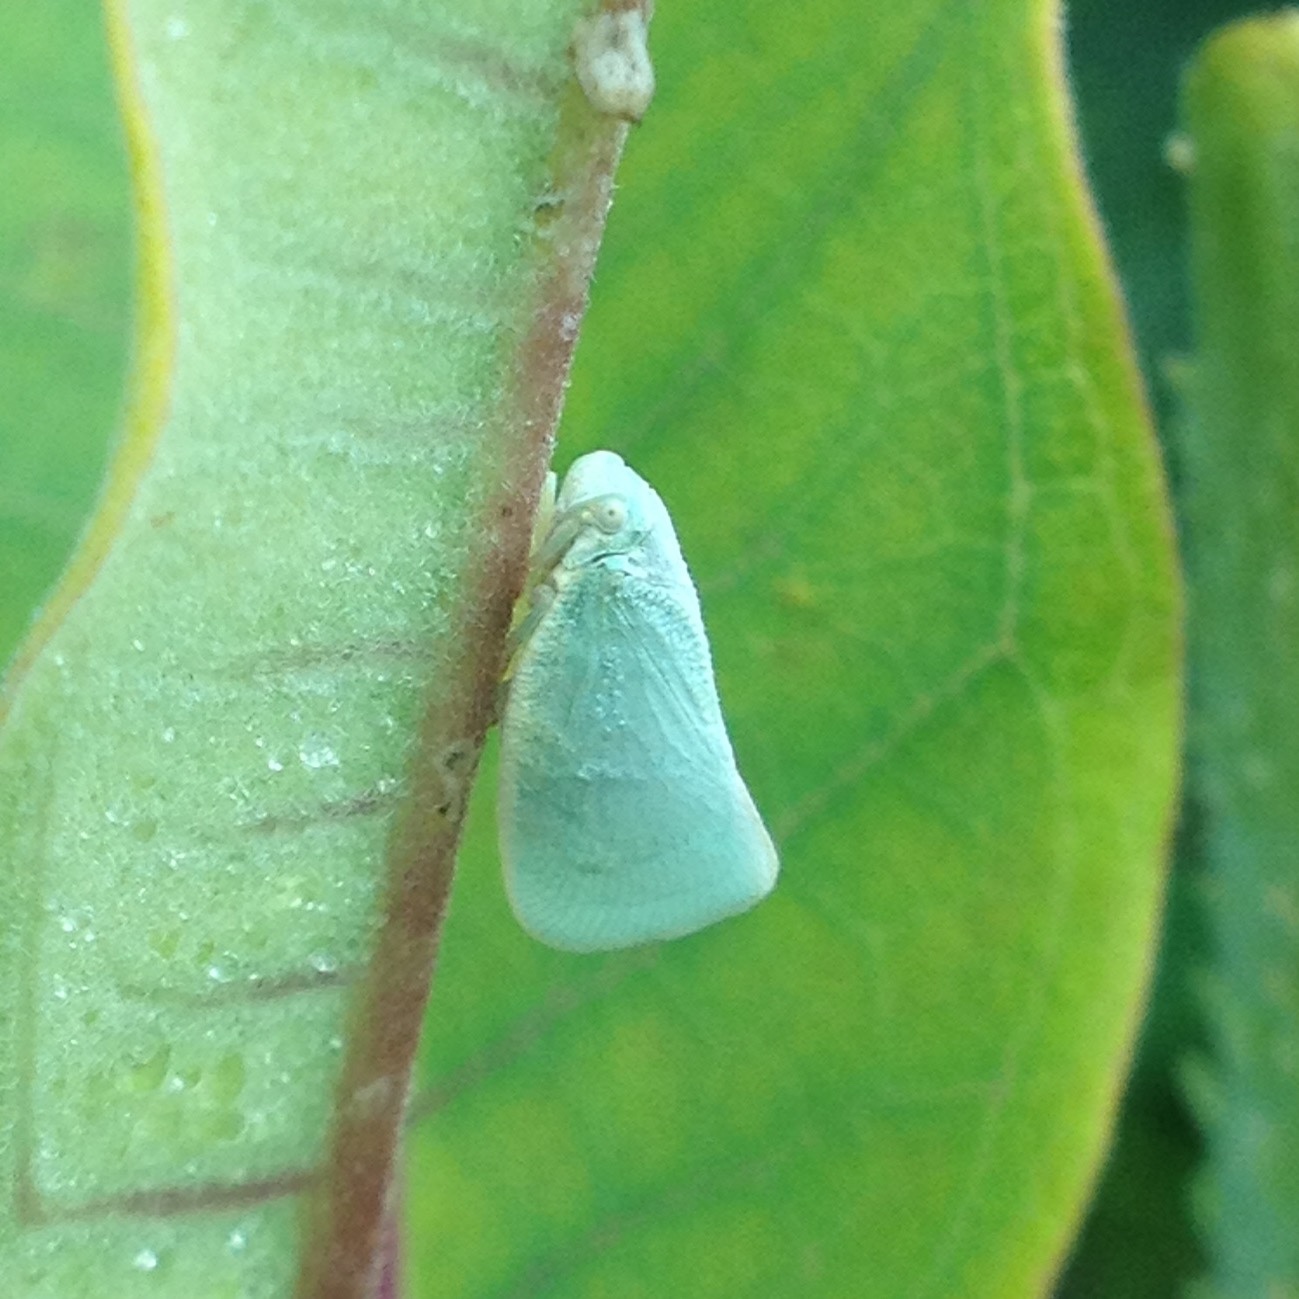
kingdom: Animalia
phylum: Arthropoda
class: Insecta
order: Hemiptera
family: Flatidae
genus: Flatormenis
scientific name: Flatormenis proxima
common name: Northern flatid planthopper
